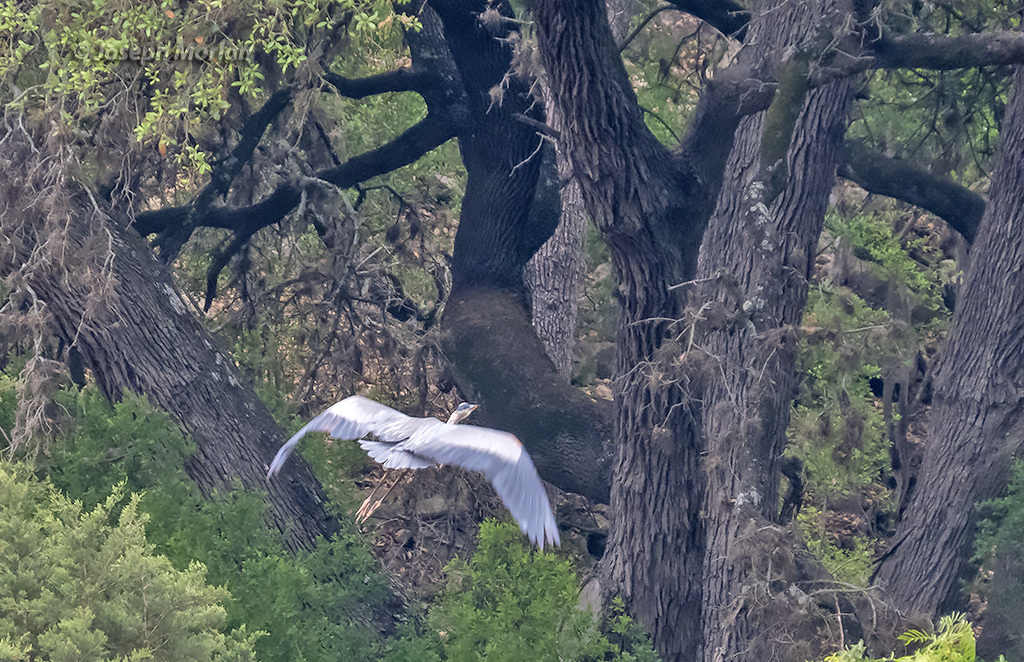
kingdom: Animalia
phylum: Chordata
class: Aves
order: Pelecaniformes
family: Ardeidae
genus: Ardea
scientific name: Ardea herodias
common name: Great blue heron
